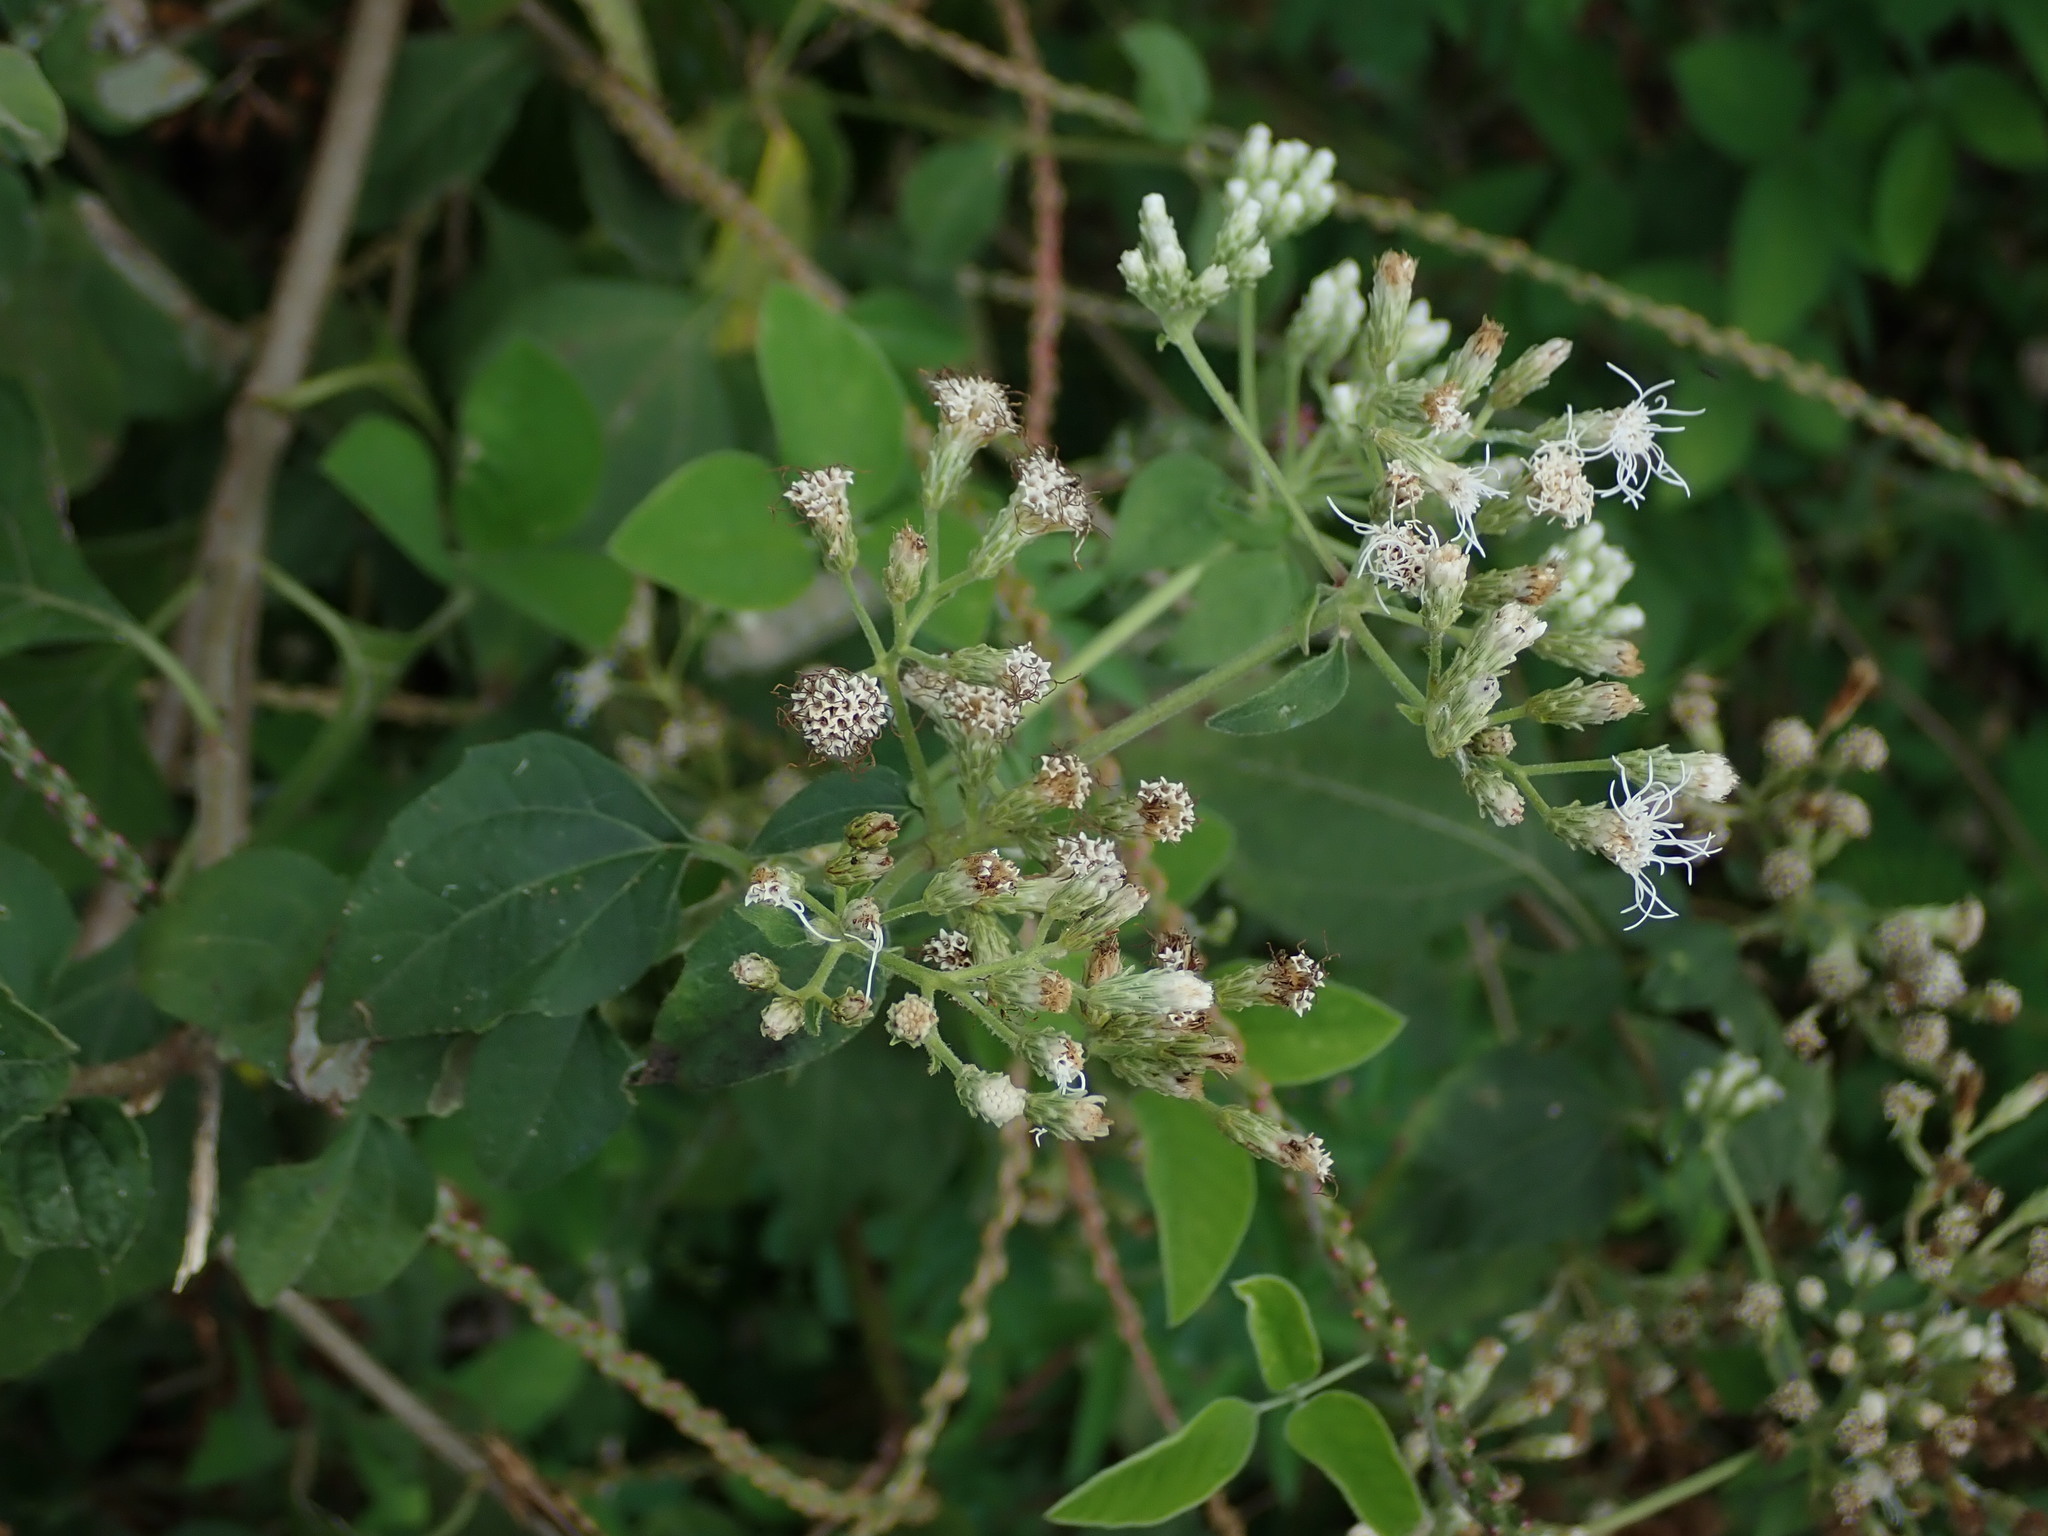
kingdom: Plantae
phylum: Tracheophyta
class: Magnoliopsida
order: Asterales
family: Asteraceae
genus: Chromolaena
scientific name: Chromolaena odorata
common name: Siamweed
